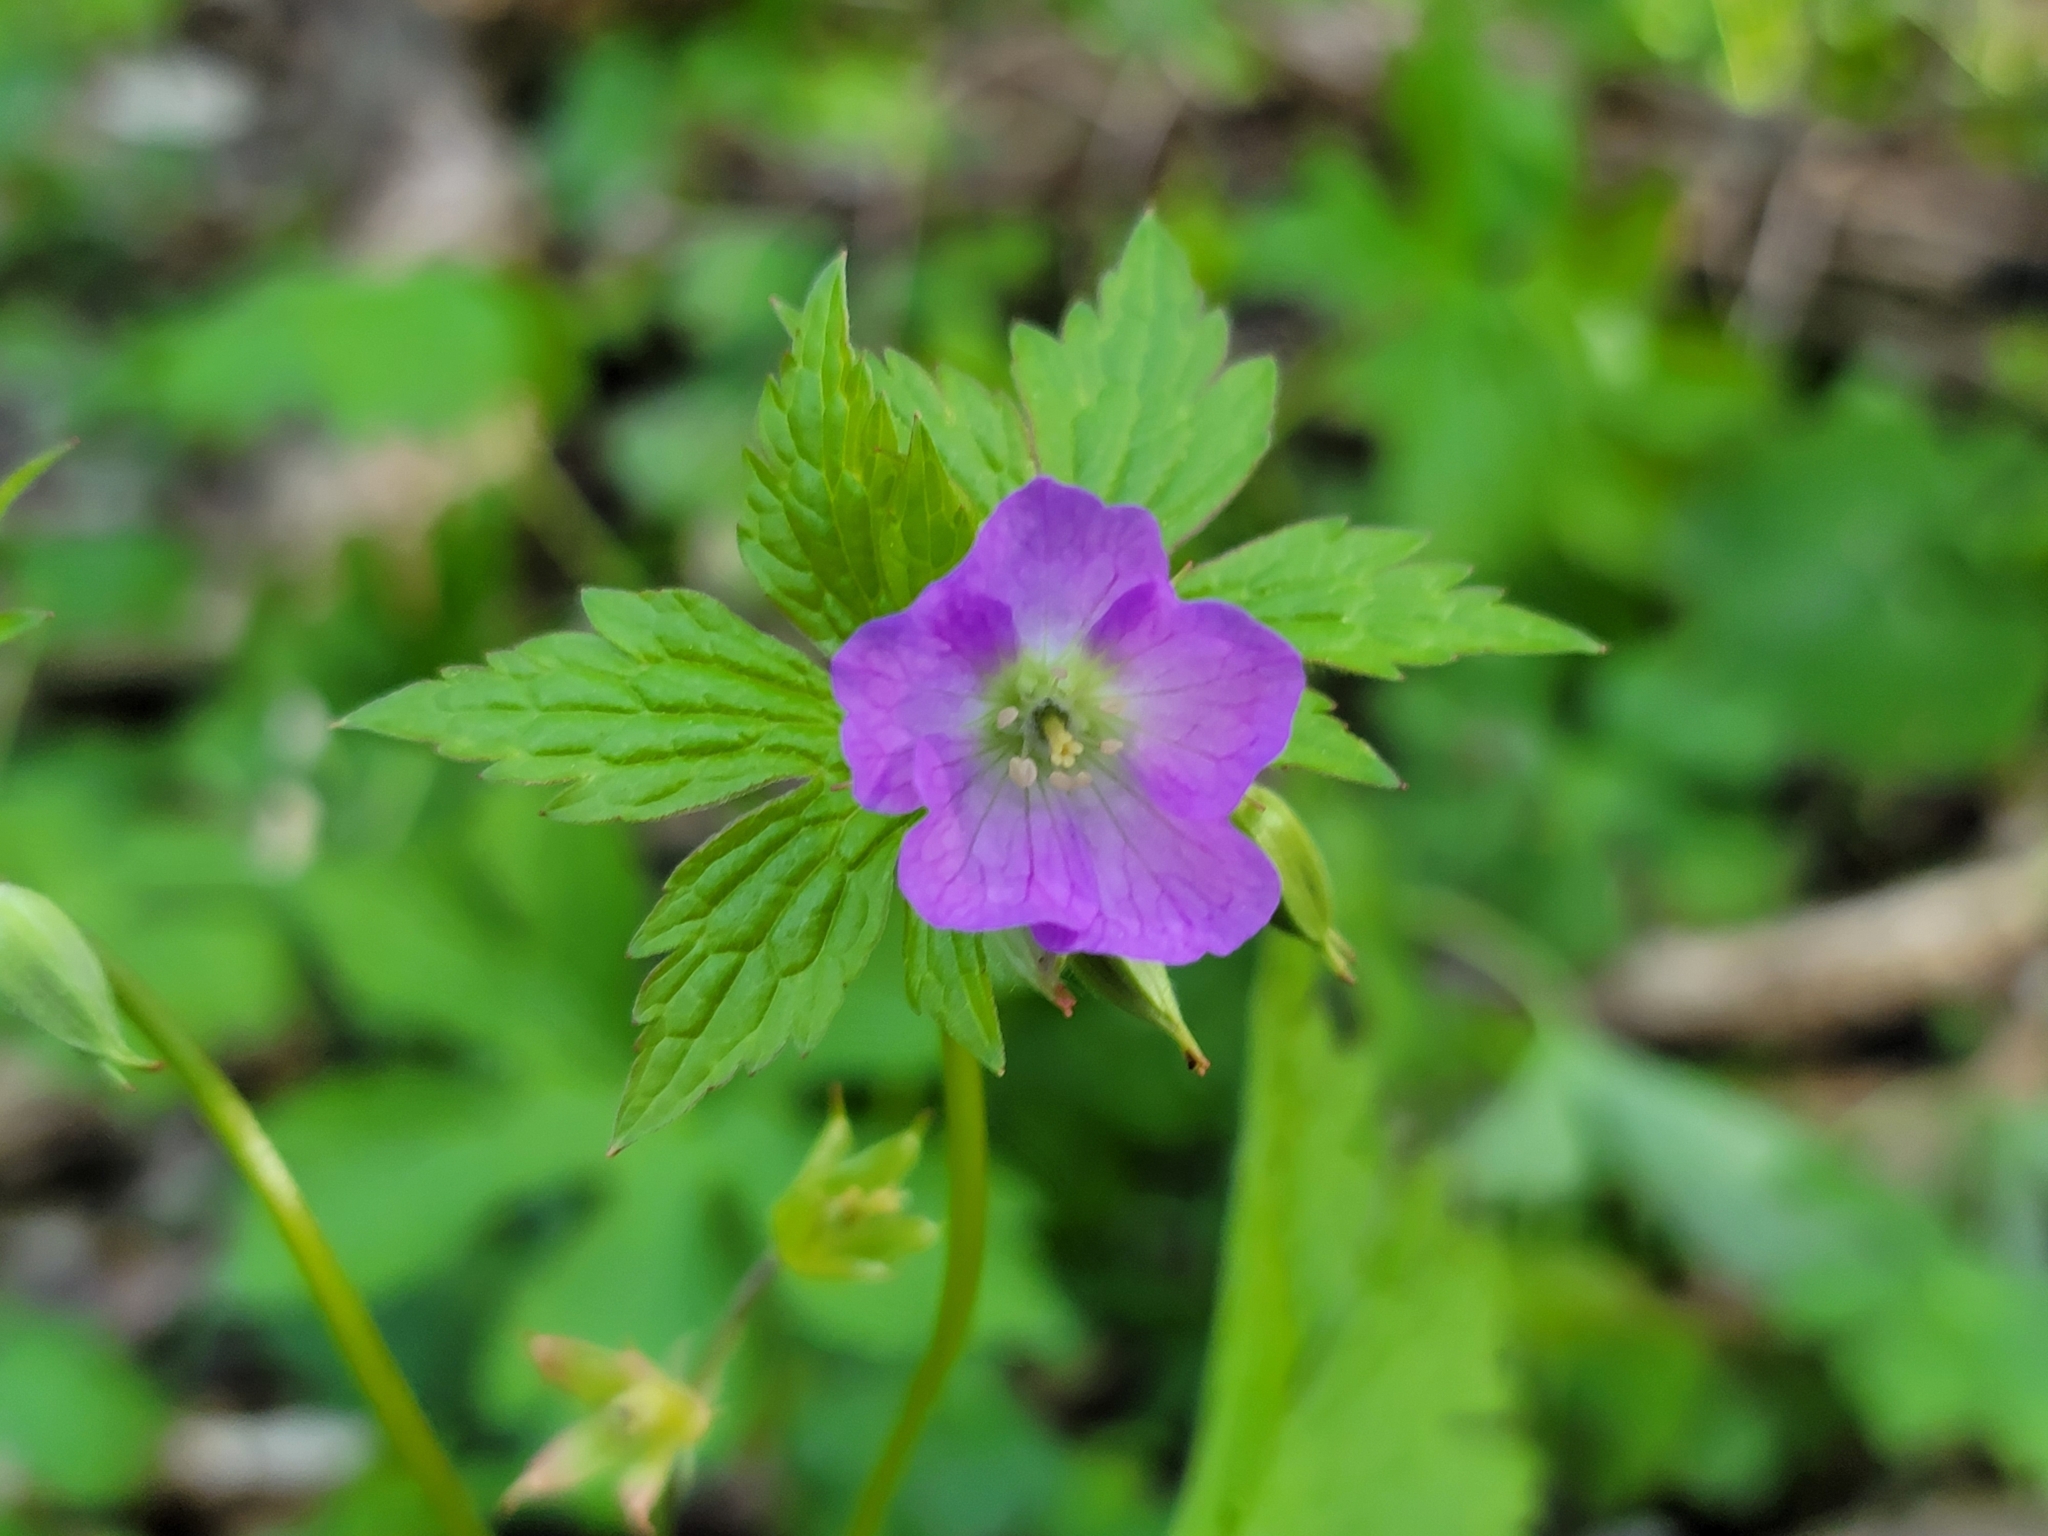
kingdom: Plantae
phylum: Tracheophyta
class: Magnoliopsida
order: Geraniales
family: Geraniaceae
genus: Geranium
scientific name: Geranium maculatum
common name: Spotted geranium
